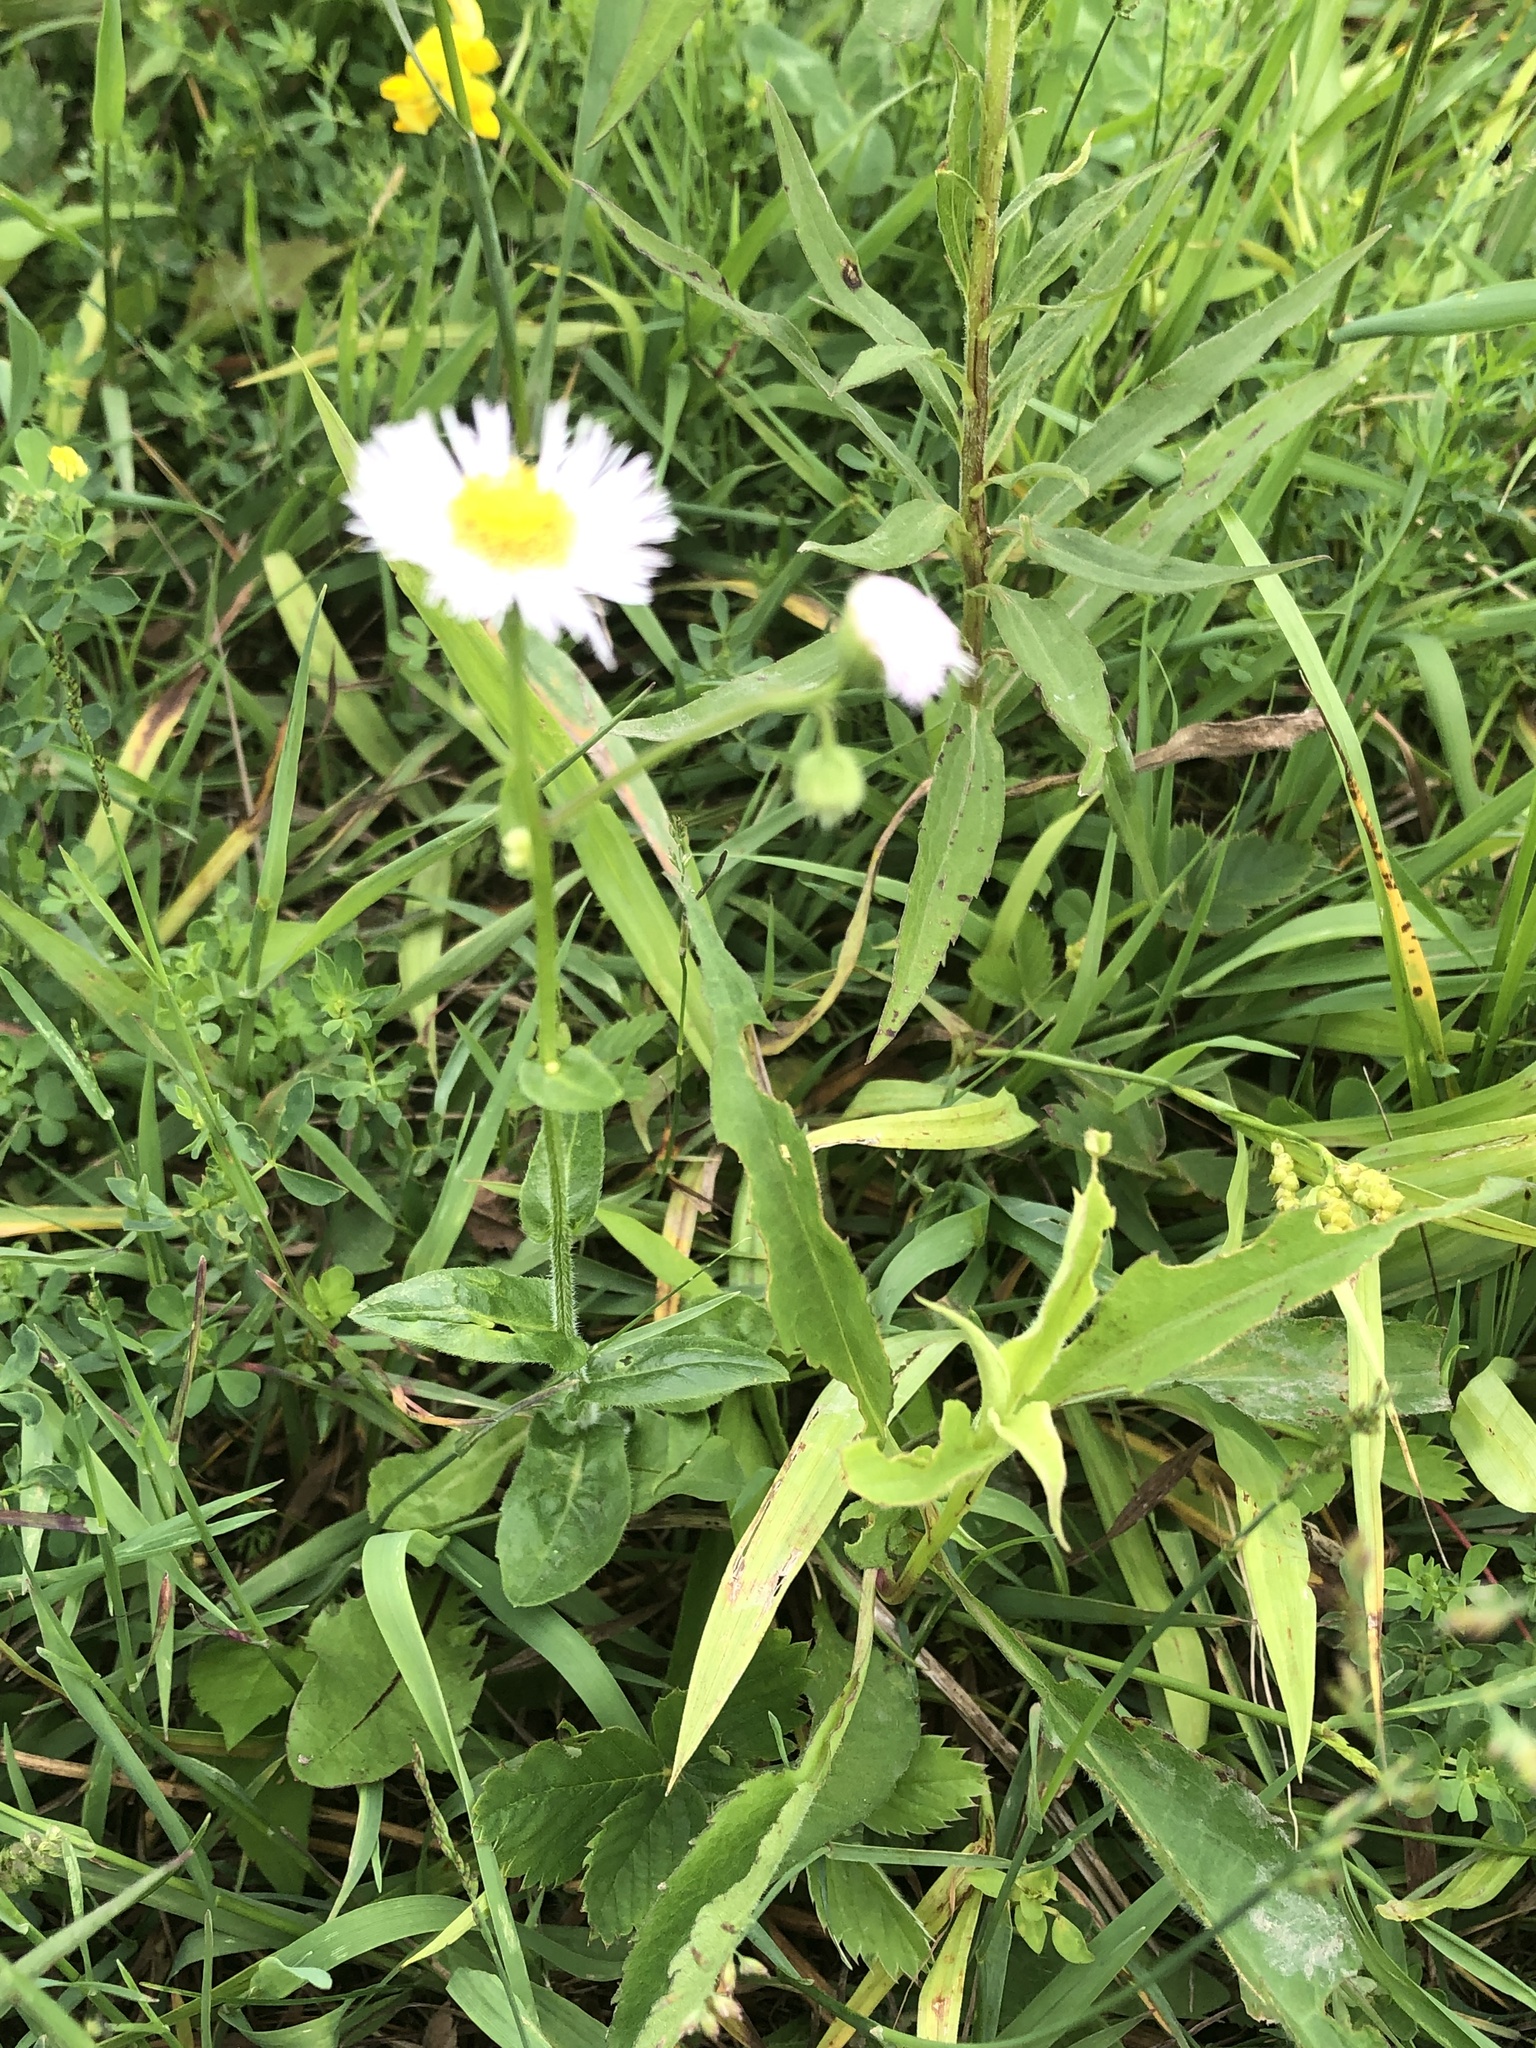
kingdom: Plantae
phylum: Tracheophyta
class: Magnoliopsida
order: Asterales
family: Asteraceae
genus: Erigeron
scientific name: Erigeron philadelphicus
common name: Robin's-plantain
